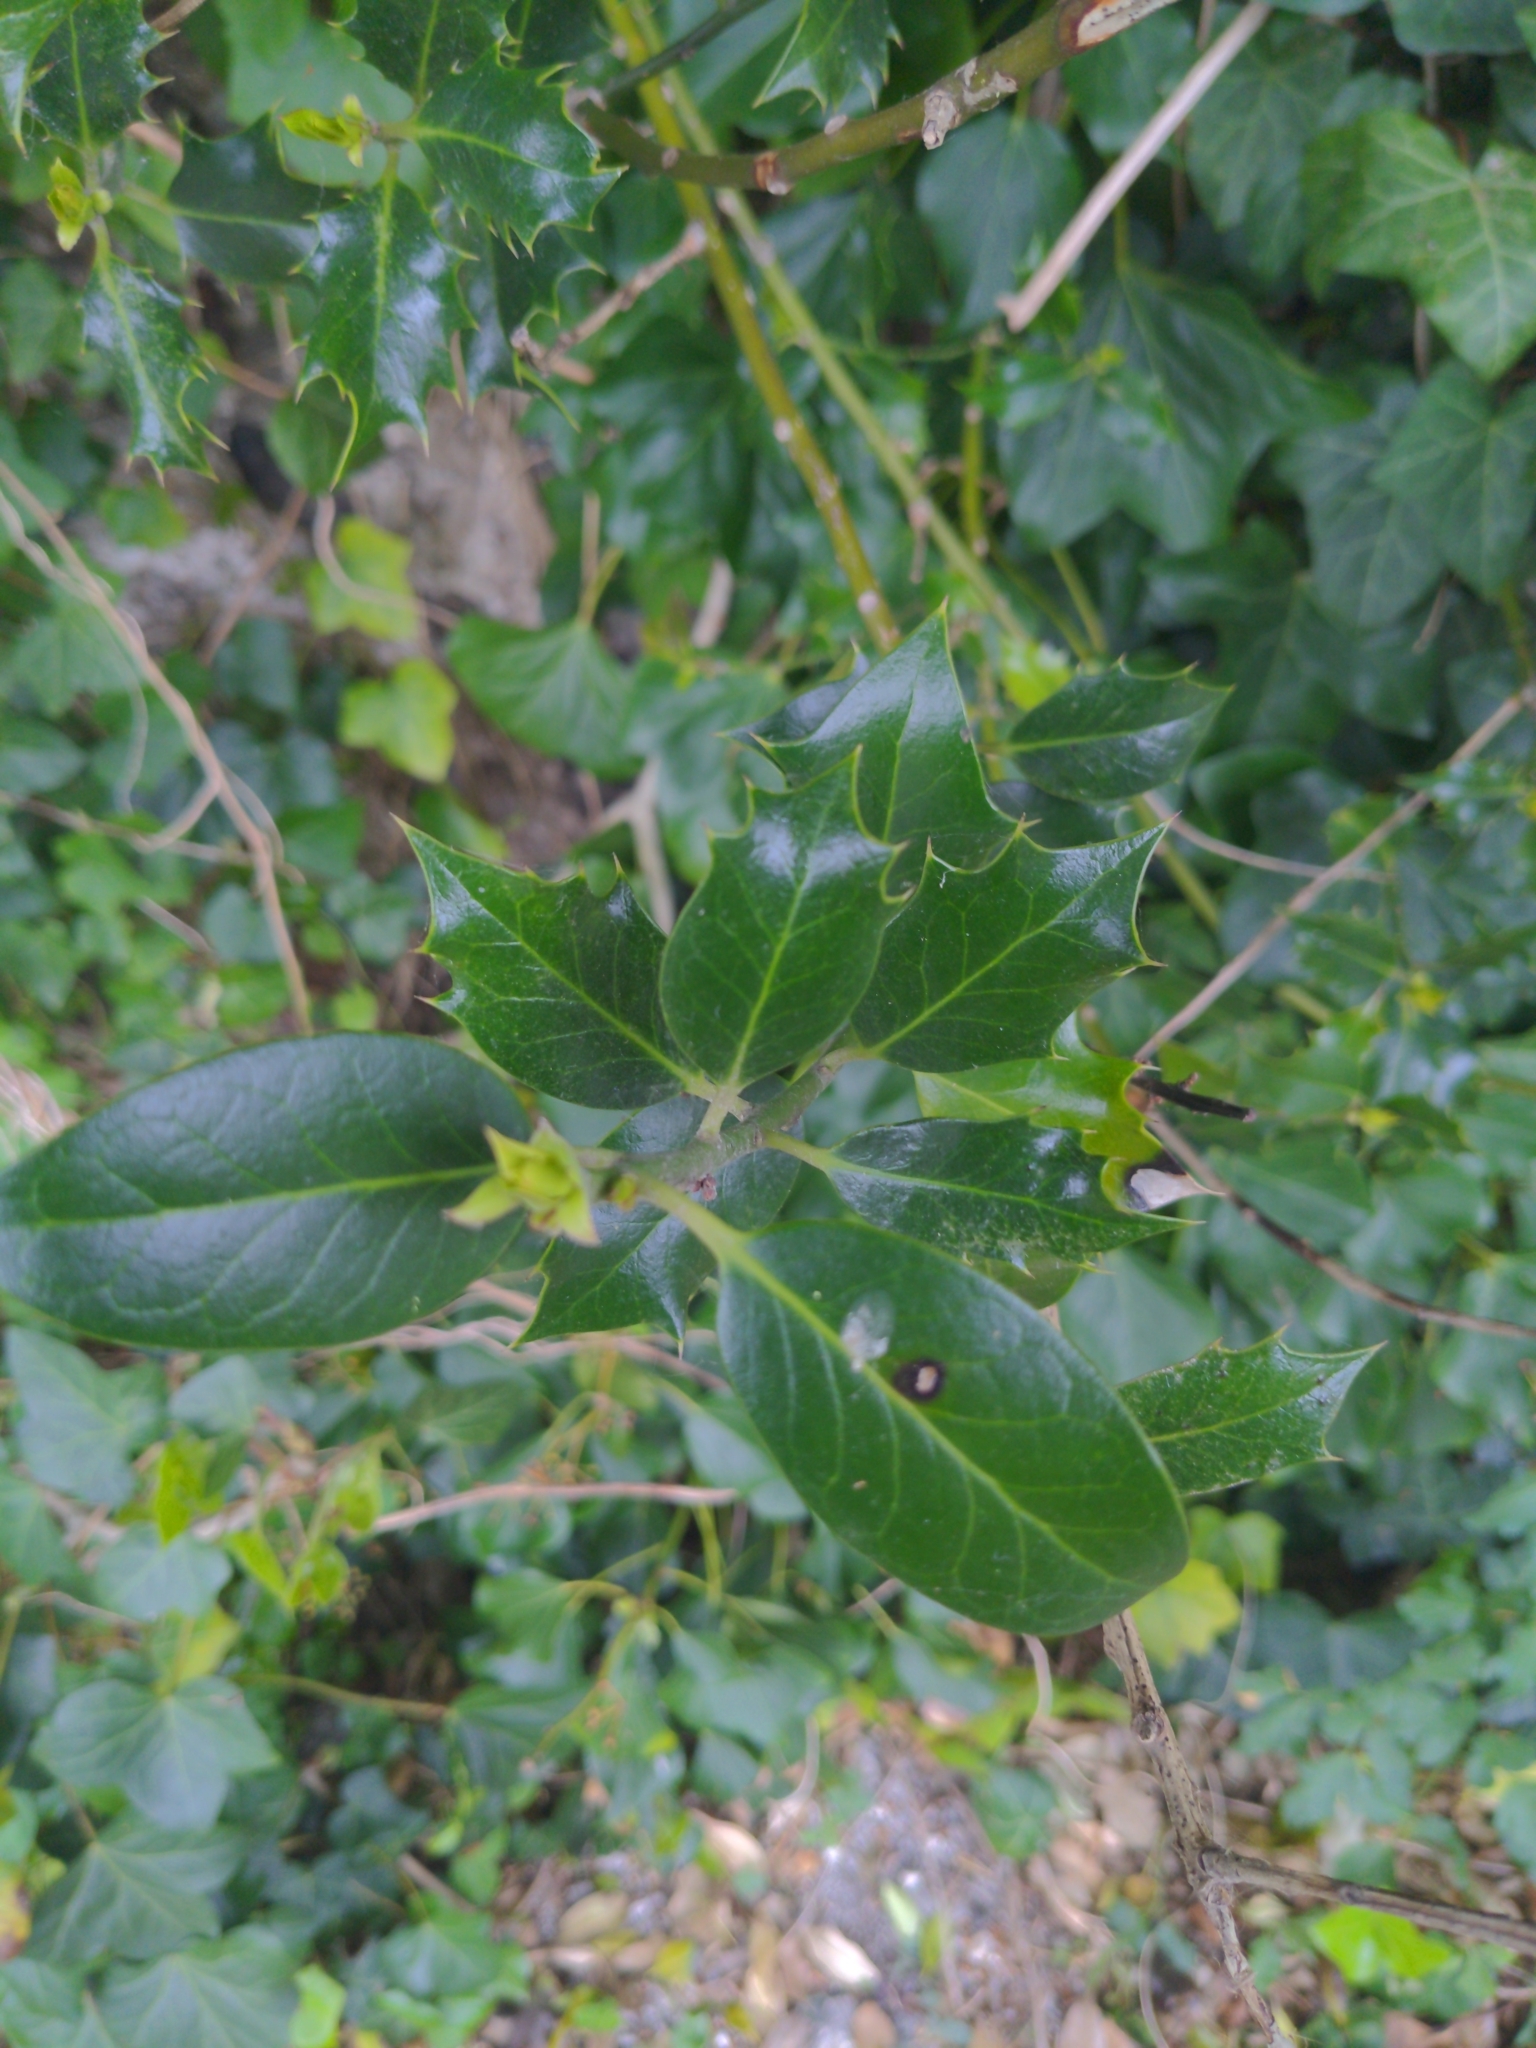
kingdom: Plantae
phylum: Tracheophyta
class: Magnoliopsida
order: Aquifoliales
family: Aquifoliaceae
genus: Ilex
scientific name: Ilex aquifolium
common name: English holly
